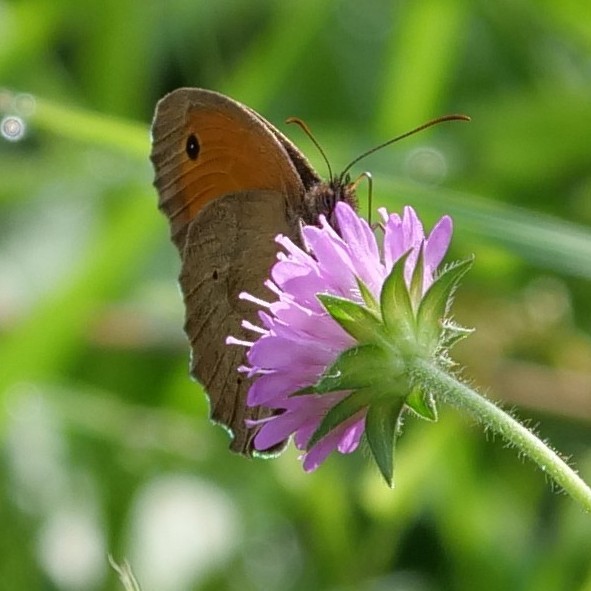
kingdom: Animalia
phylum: Arthropoda
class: Insecta
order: Lepidoptera
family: Nymphalidae
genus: Maniola
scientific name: Maniola jurtina
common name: Meadow brown
